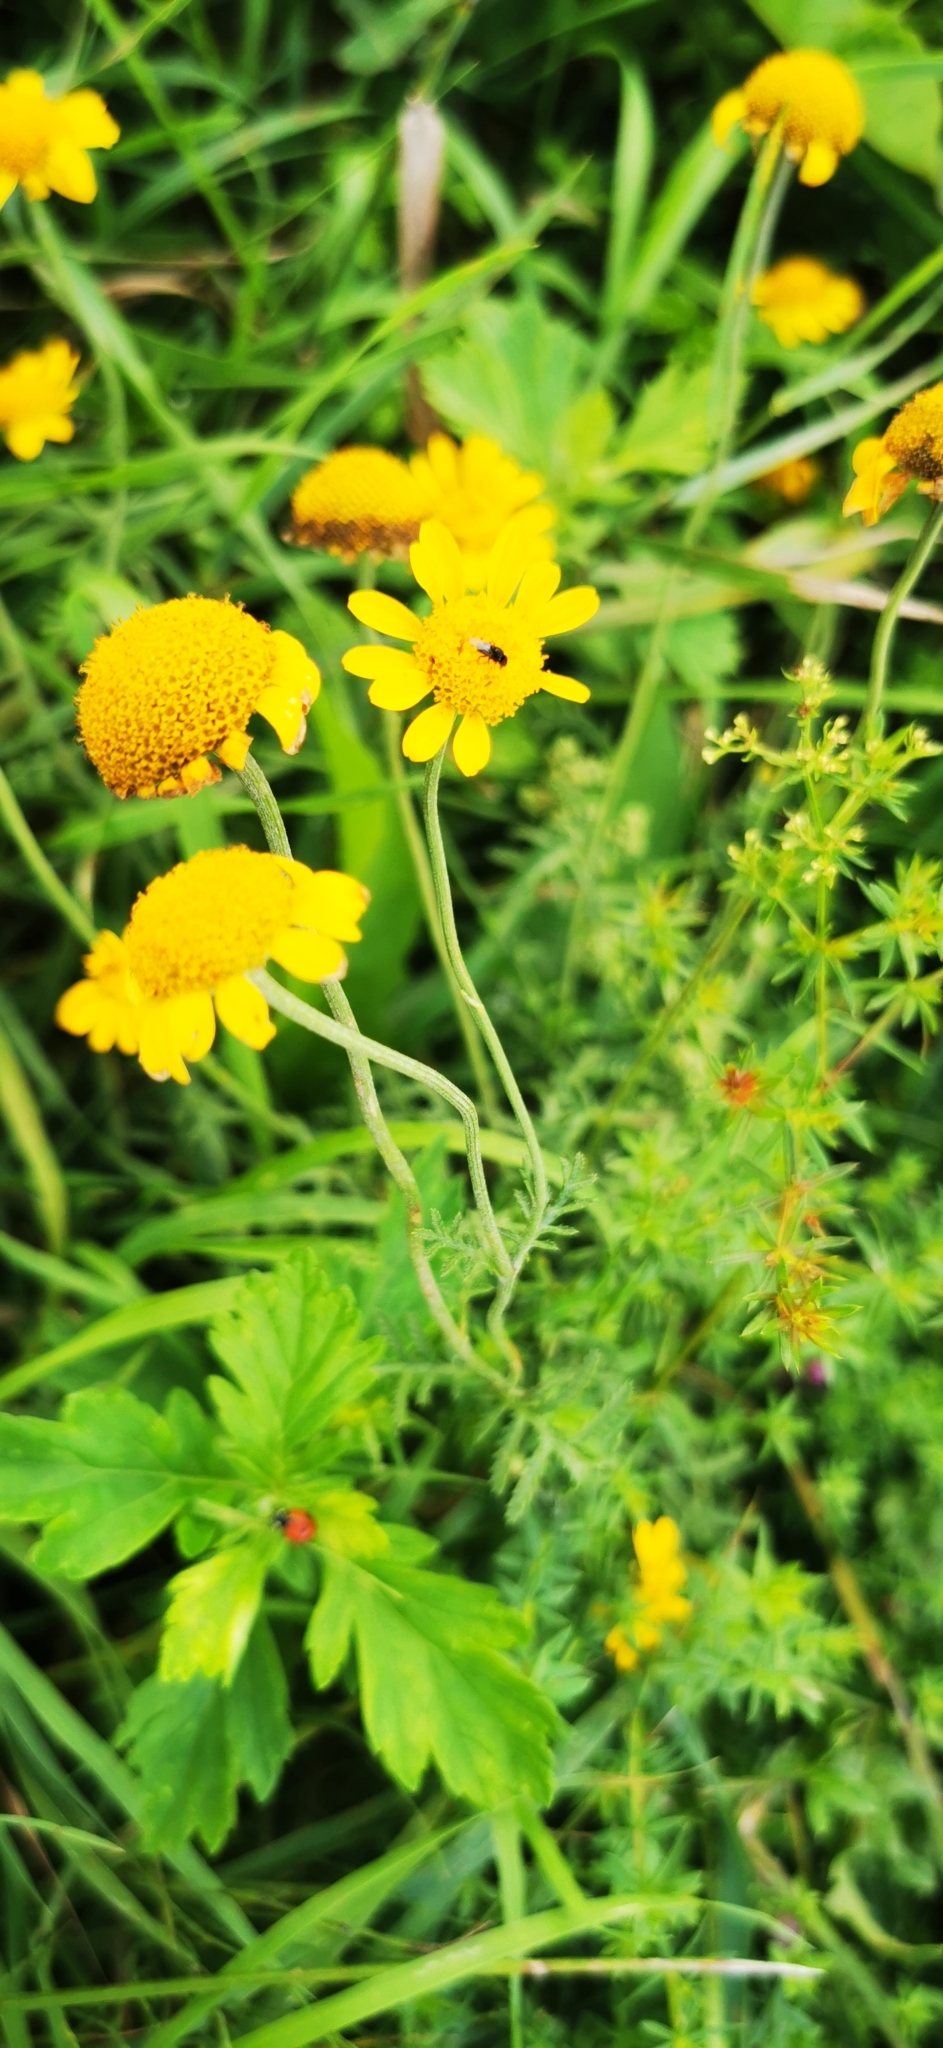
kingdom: Plantae
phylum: Tracheophyta
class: Magnoliopsida
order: Asterales
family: Asteraceae
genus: Cota
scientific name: Cota tinctoria
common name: Golden chamomile
